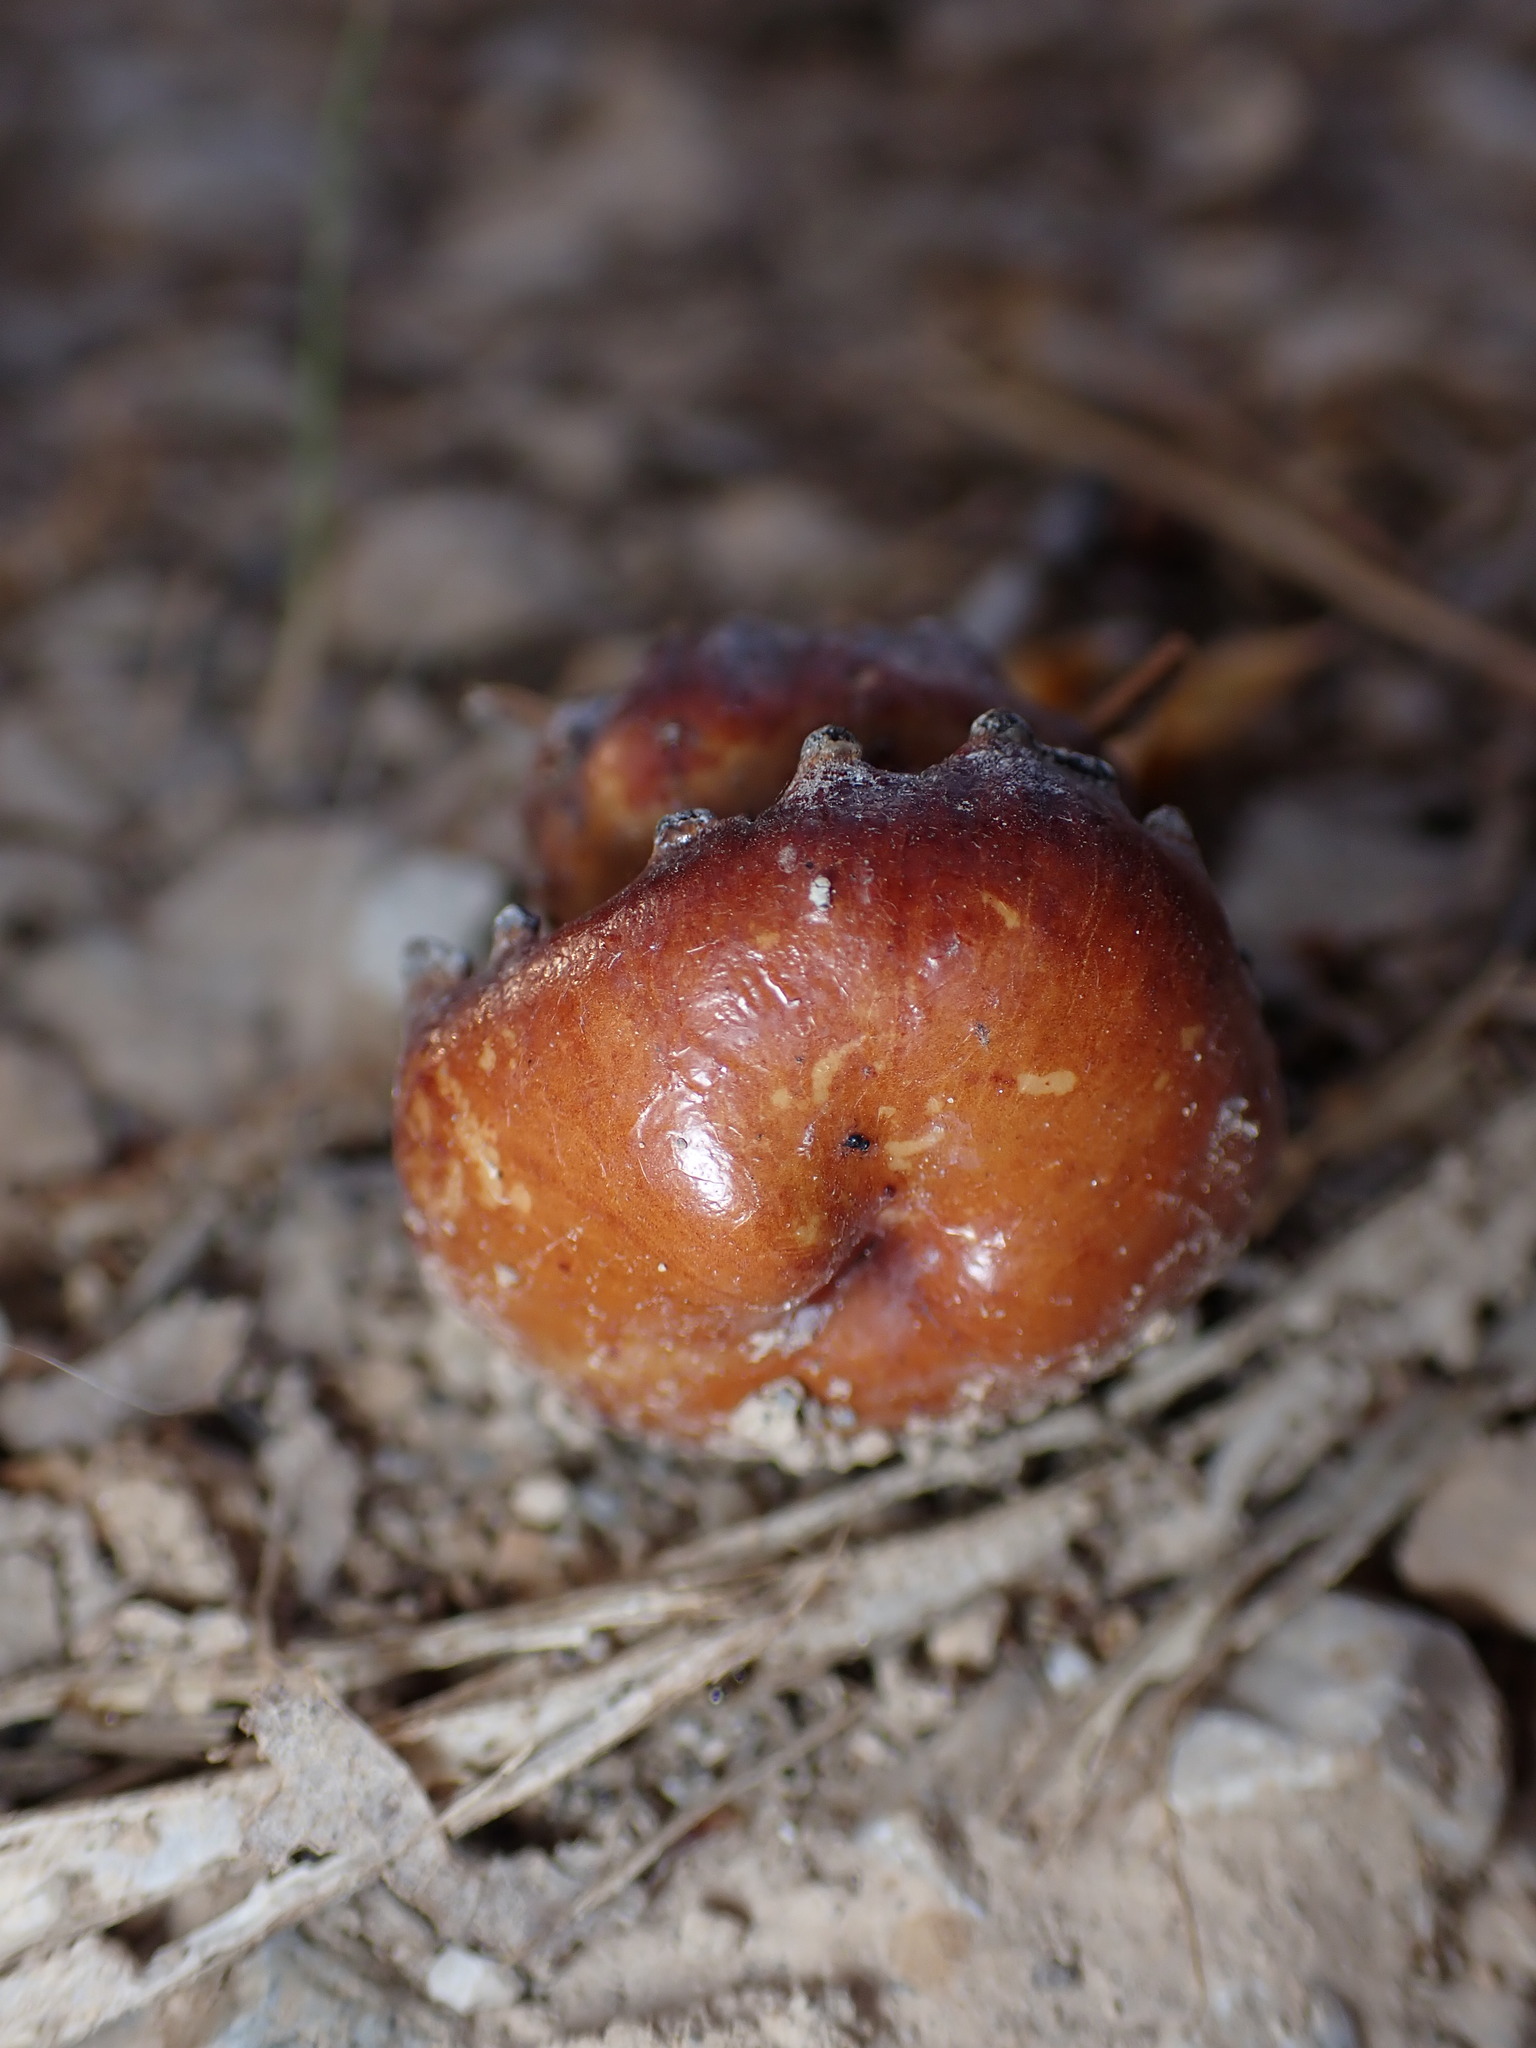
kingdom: Animalia
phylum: Arthropoda
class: Insecta
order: Hymenoptera
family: Cynipidae
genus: Andricus
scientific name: Andricus dentimitratus
